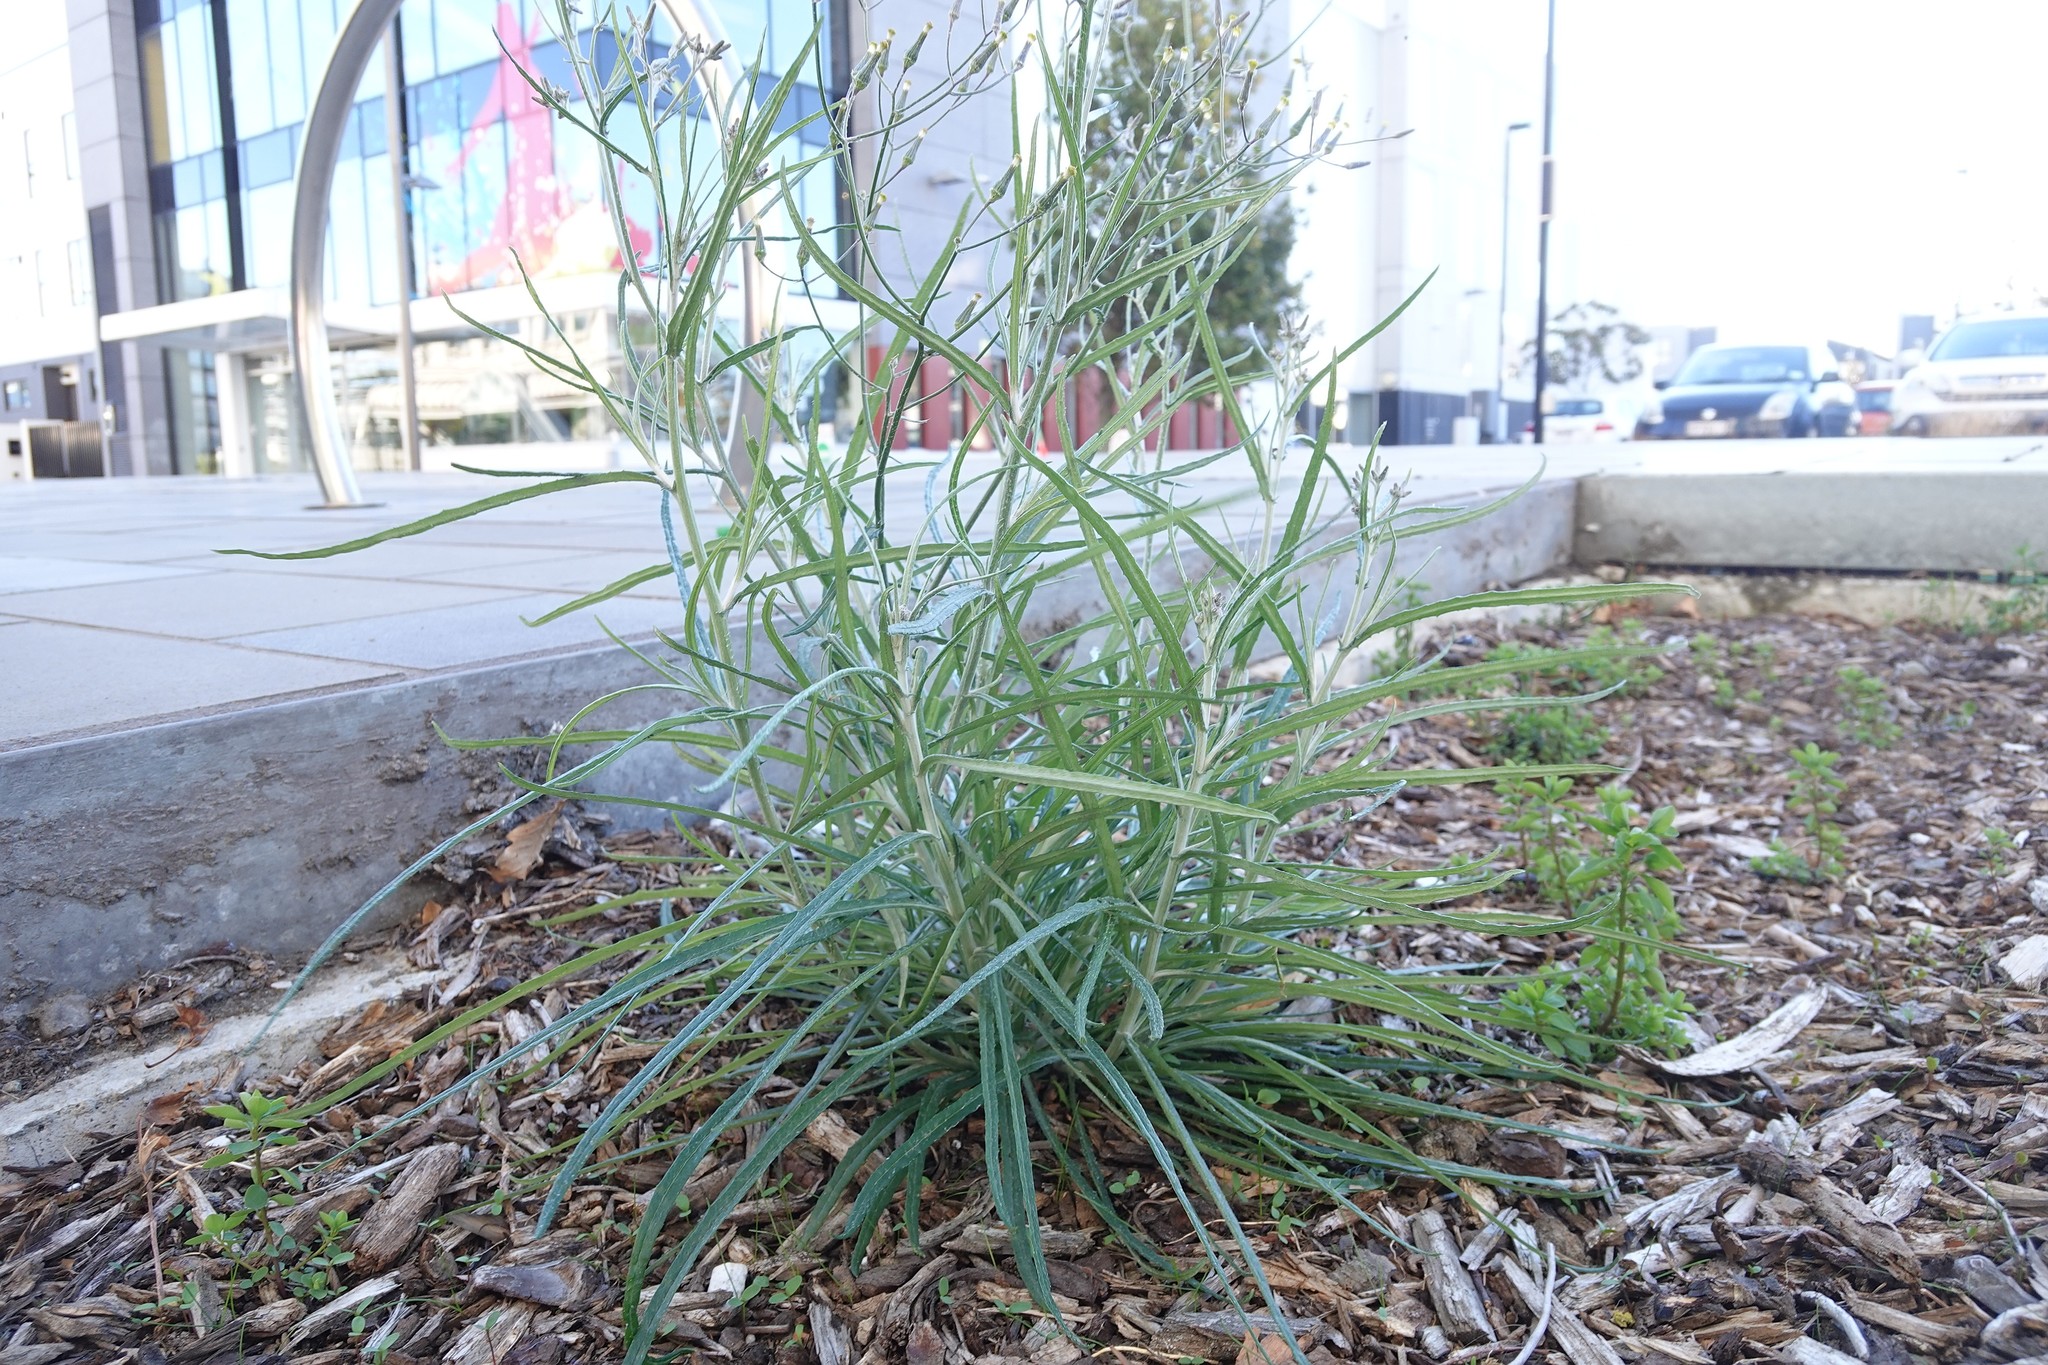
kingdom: Plantae
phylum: Tracheophyta
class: Magnoliopsida
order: Asterales
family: Asteraceae
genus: Senecio
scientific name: Senecio quadridentatus
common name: Cotton fireweed
